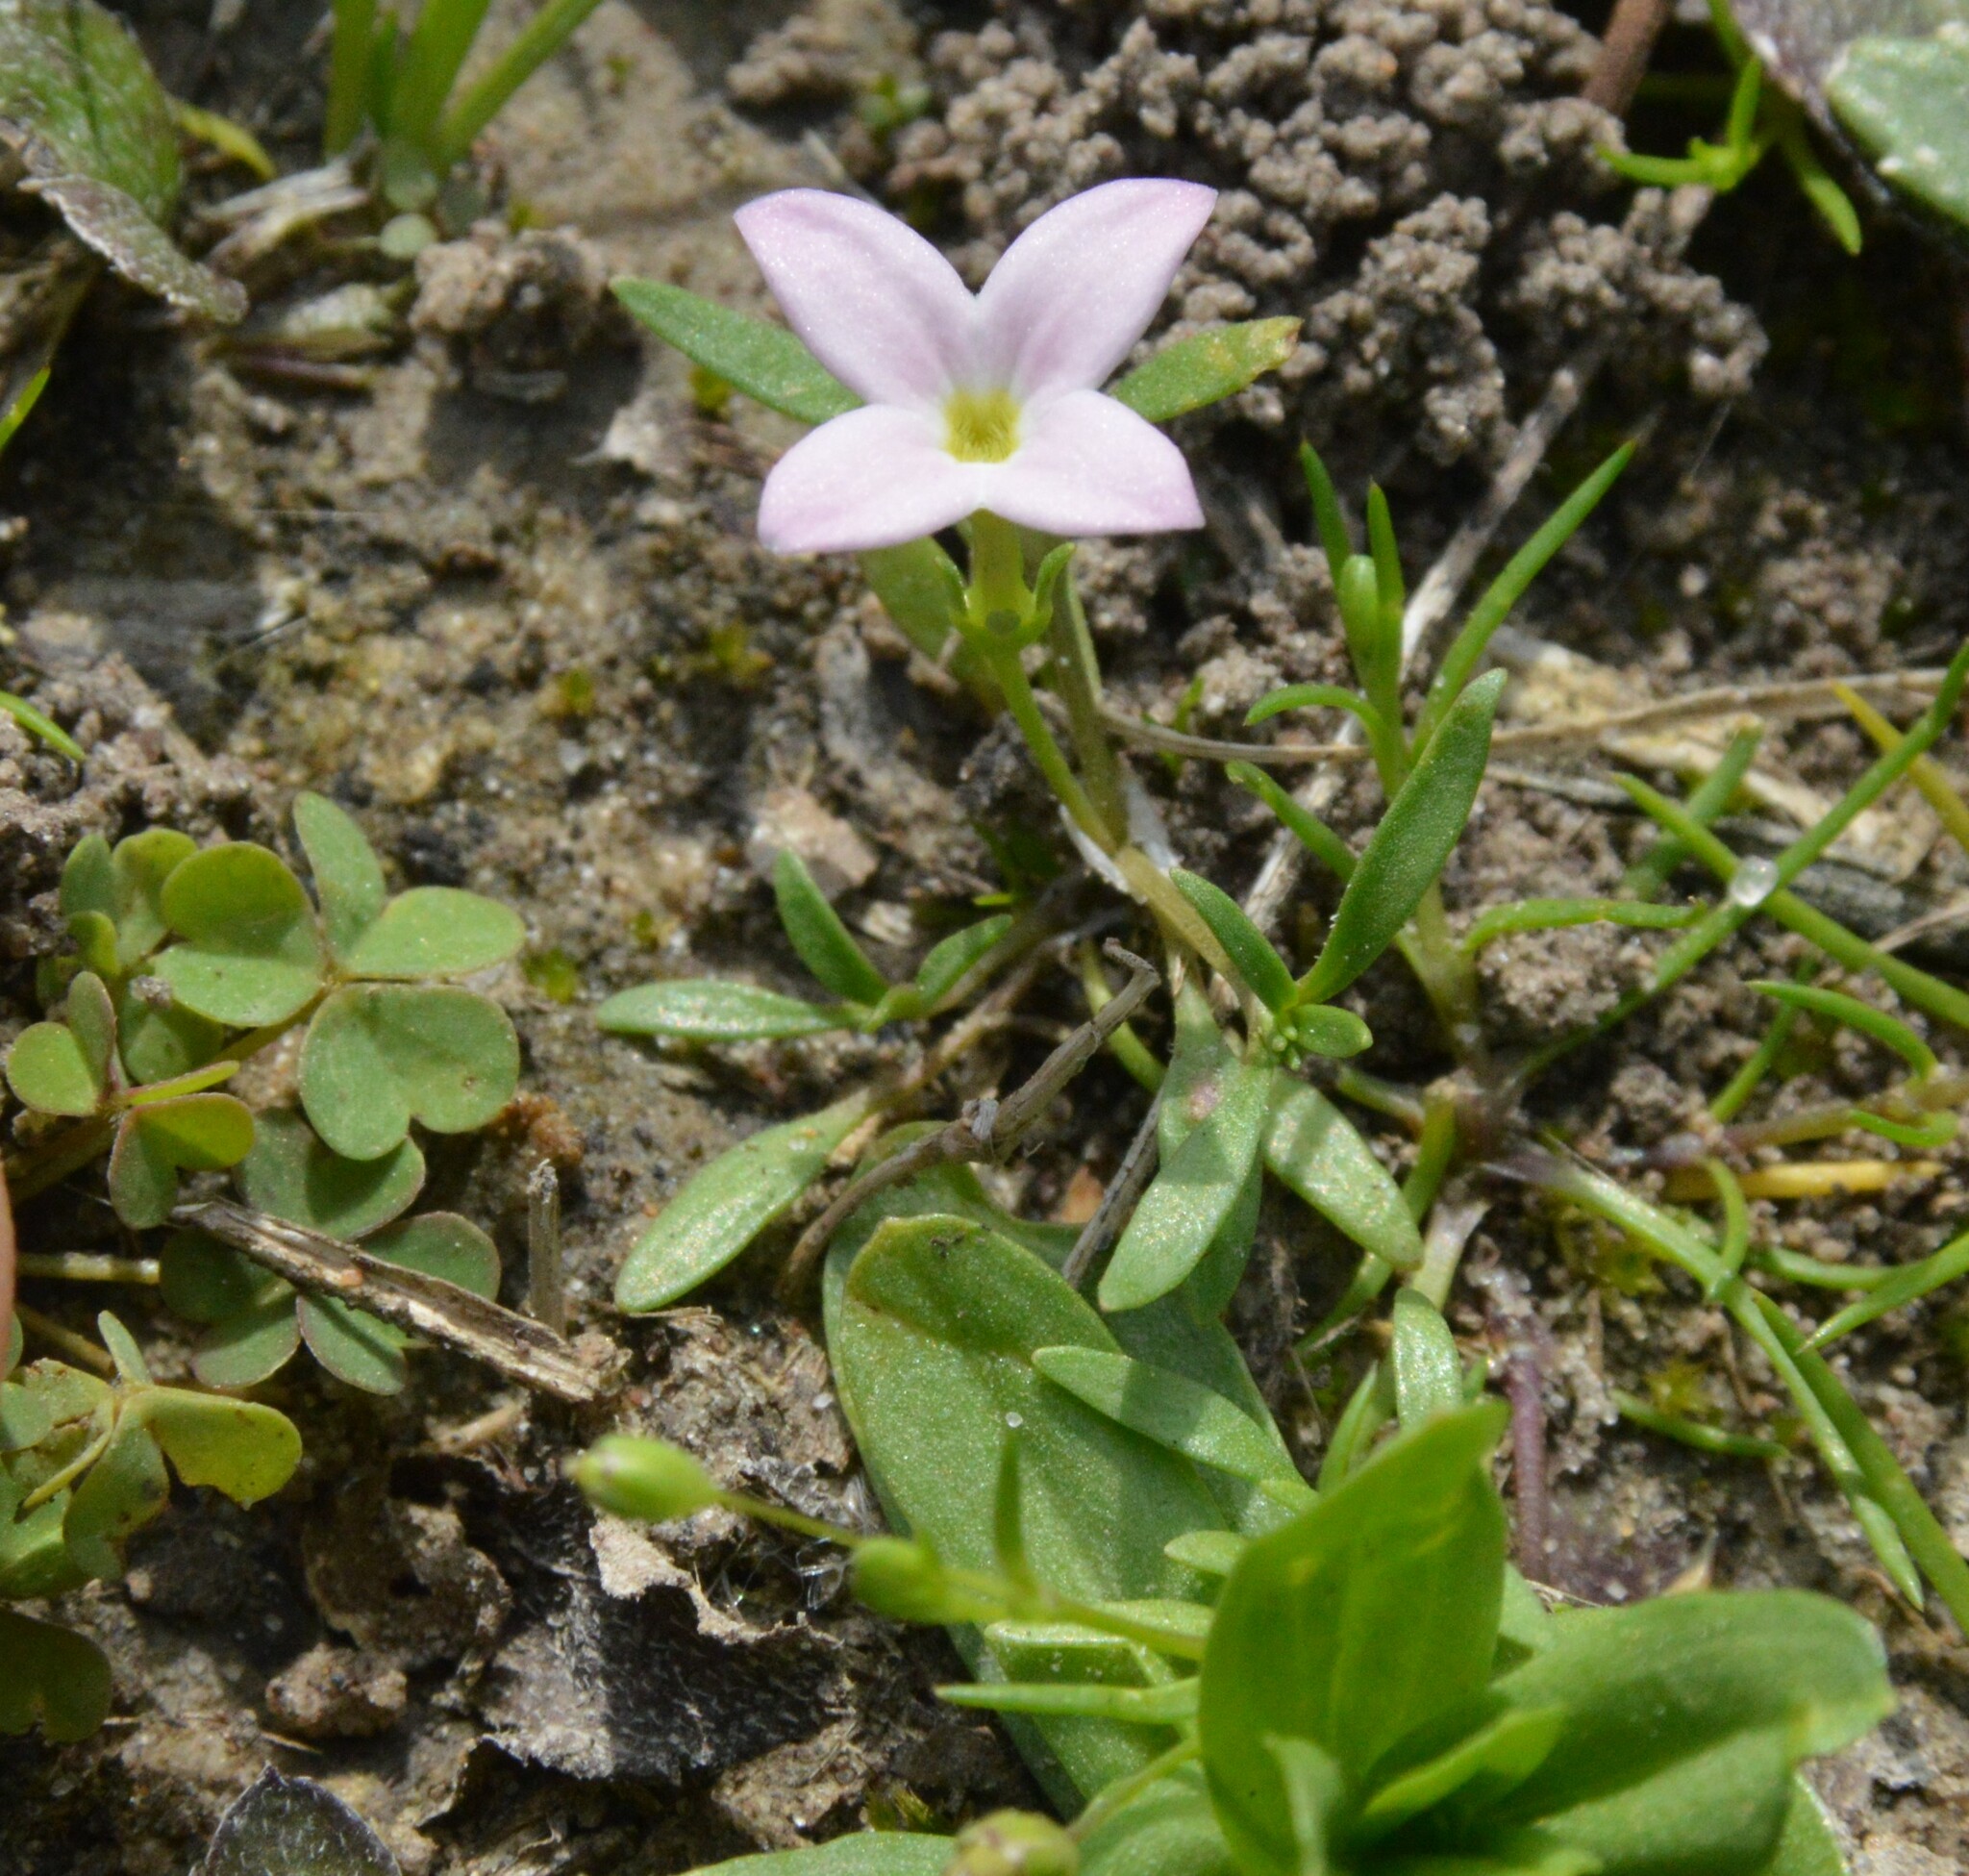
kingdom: Plantae
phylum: Tracheophyta
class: Magnoliopsida
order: Gentianales
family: Rubiaceae
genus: Houstonia
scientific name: Houstonia rosea
